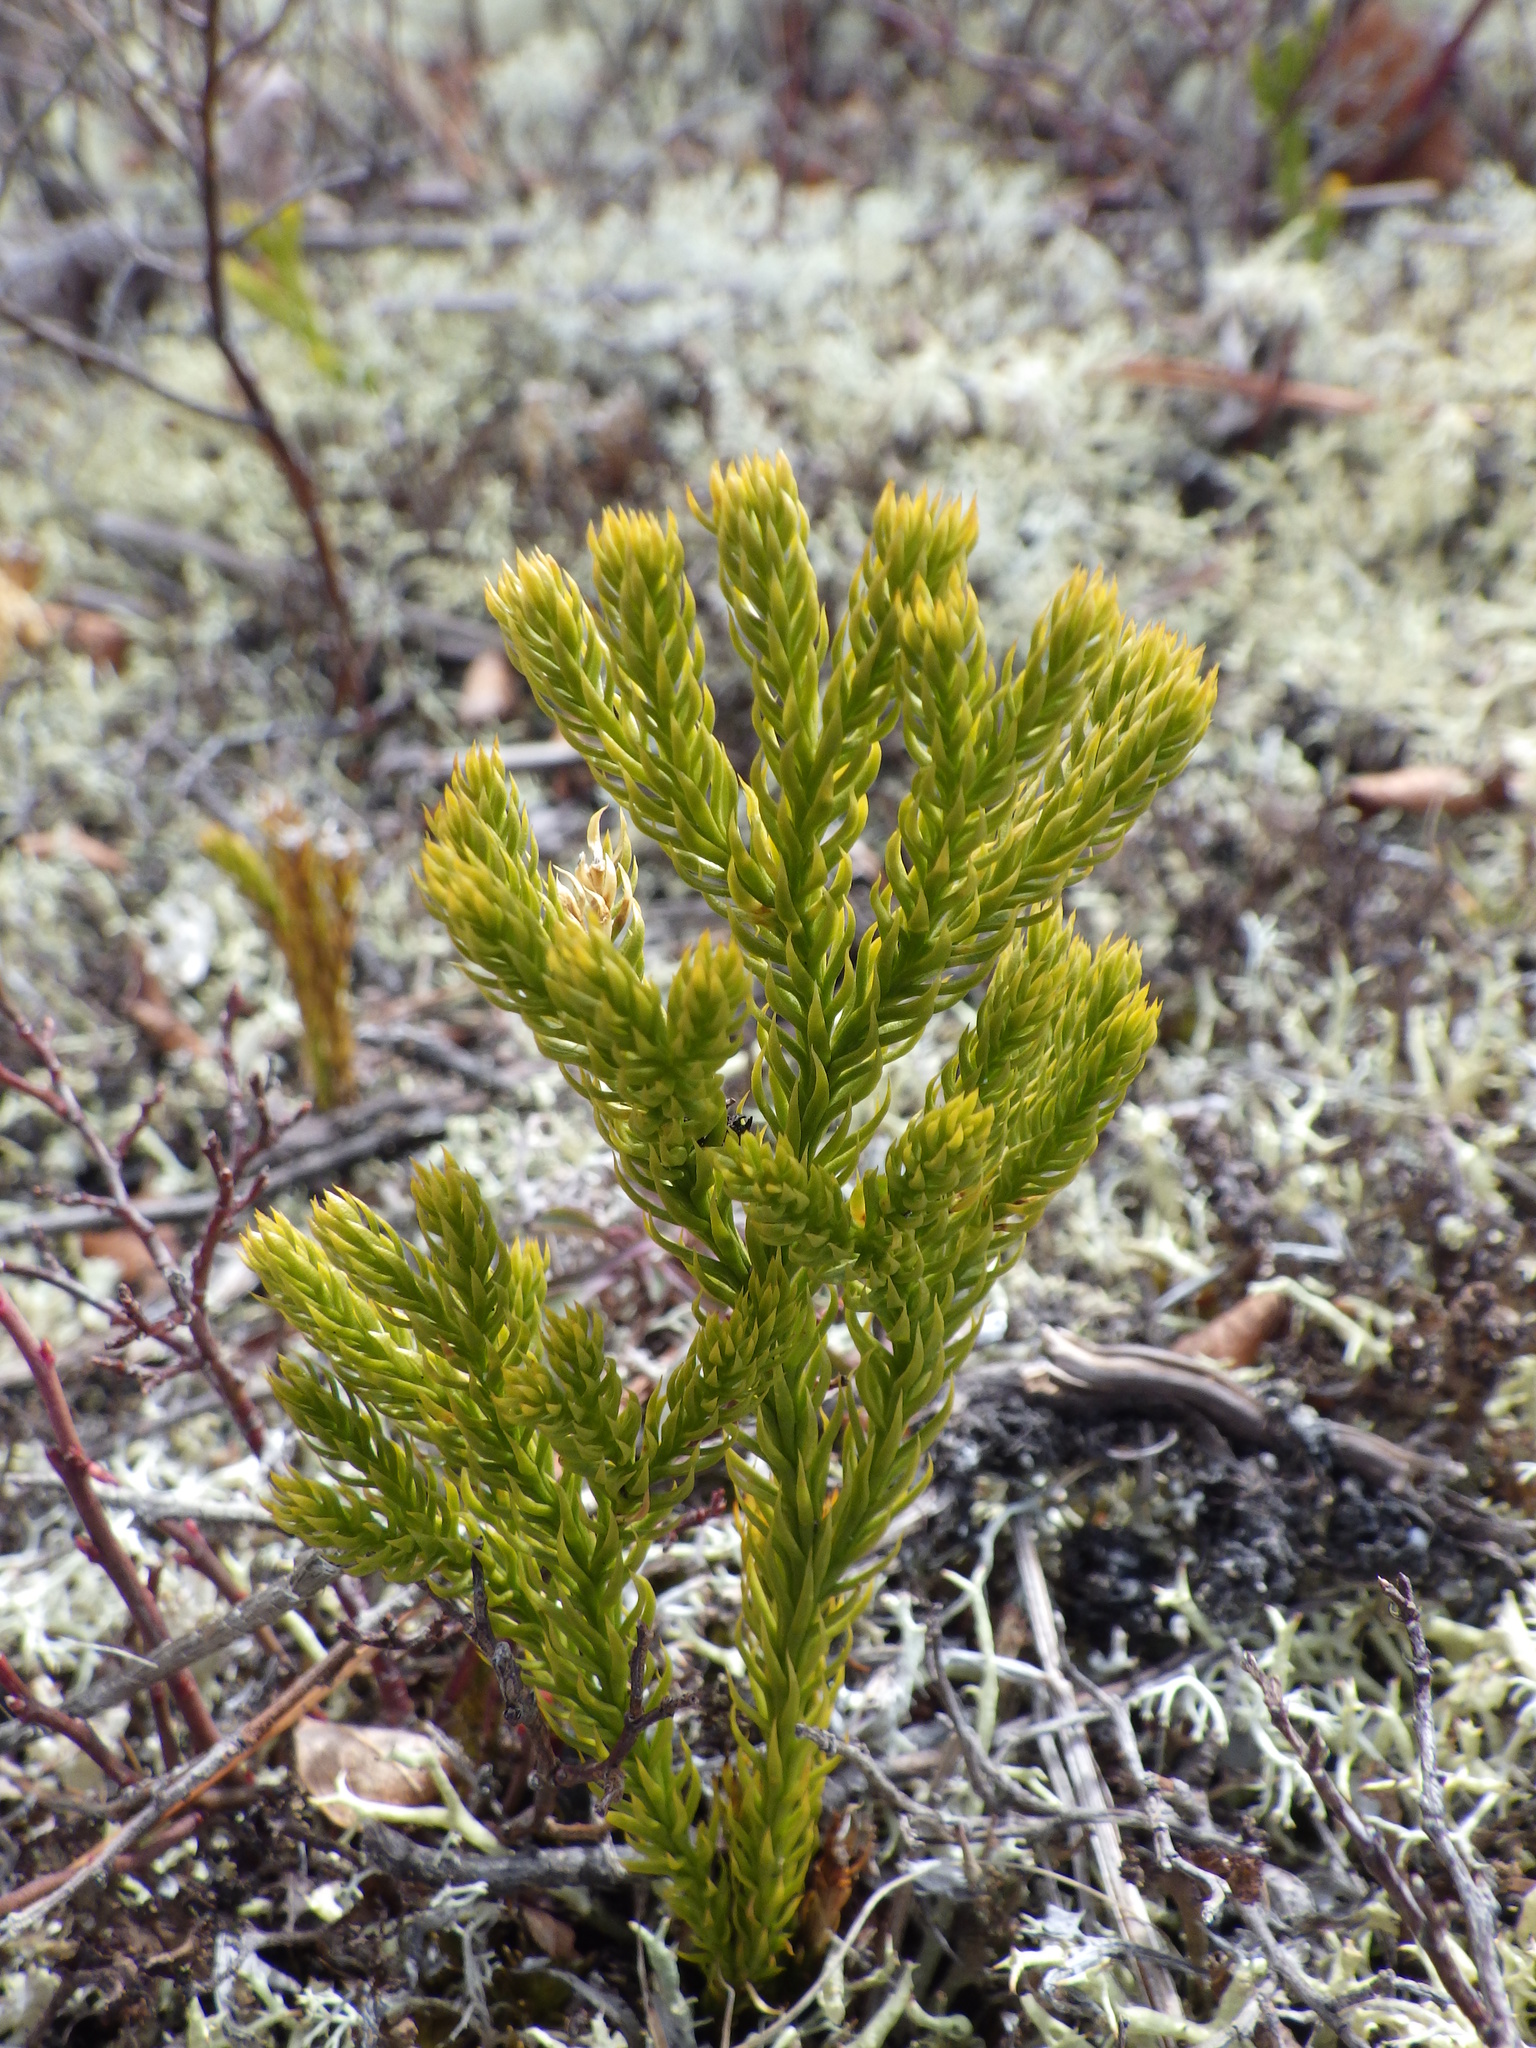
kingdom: Plantae
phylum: Tracheophyta
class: Lycopodiopsida
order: Lycopodiales
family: Lycopodiaceae
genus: Dendrolycopodium
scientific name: Dendrolycopodium hickeyi
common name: Hickey's clubmoss
